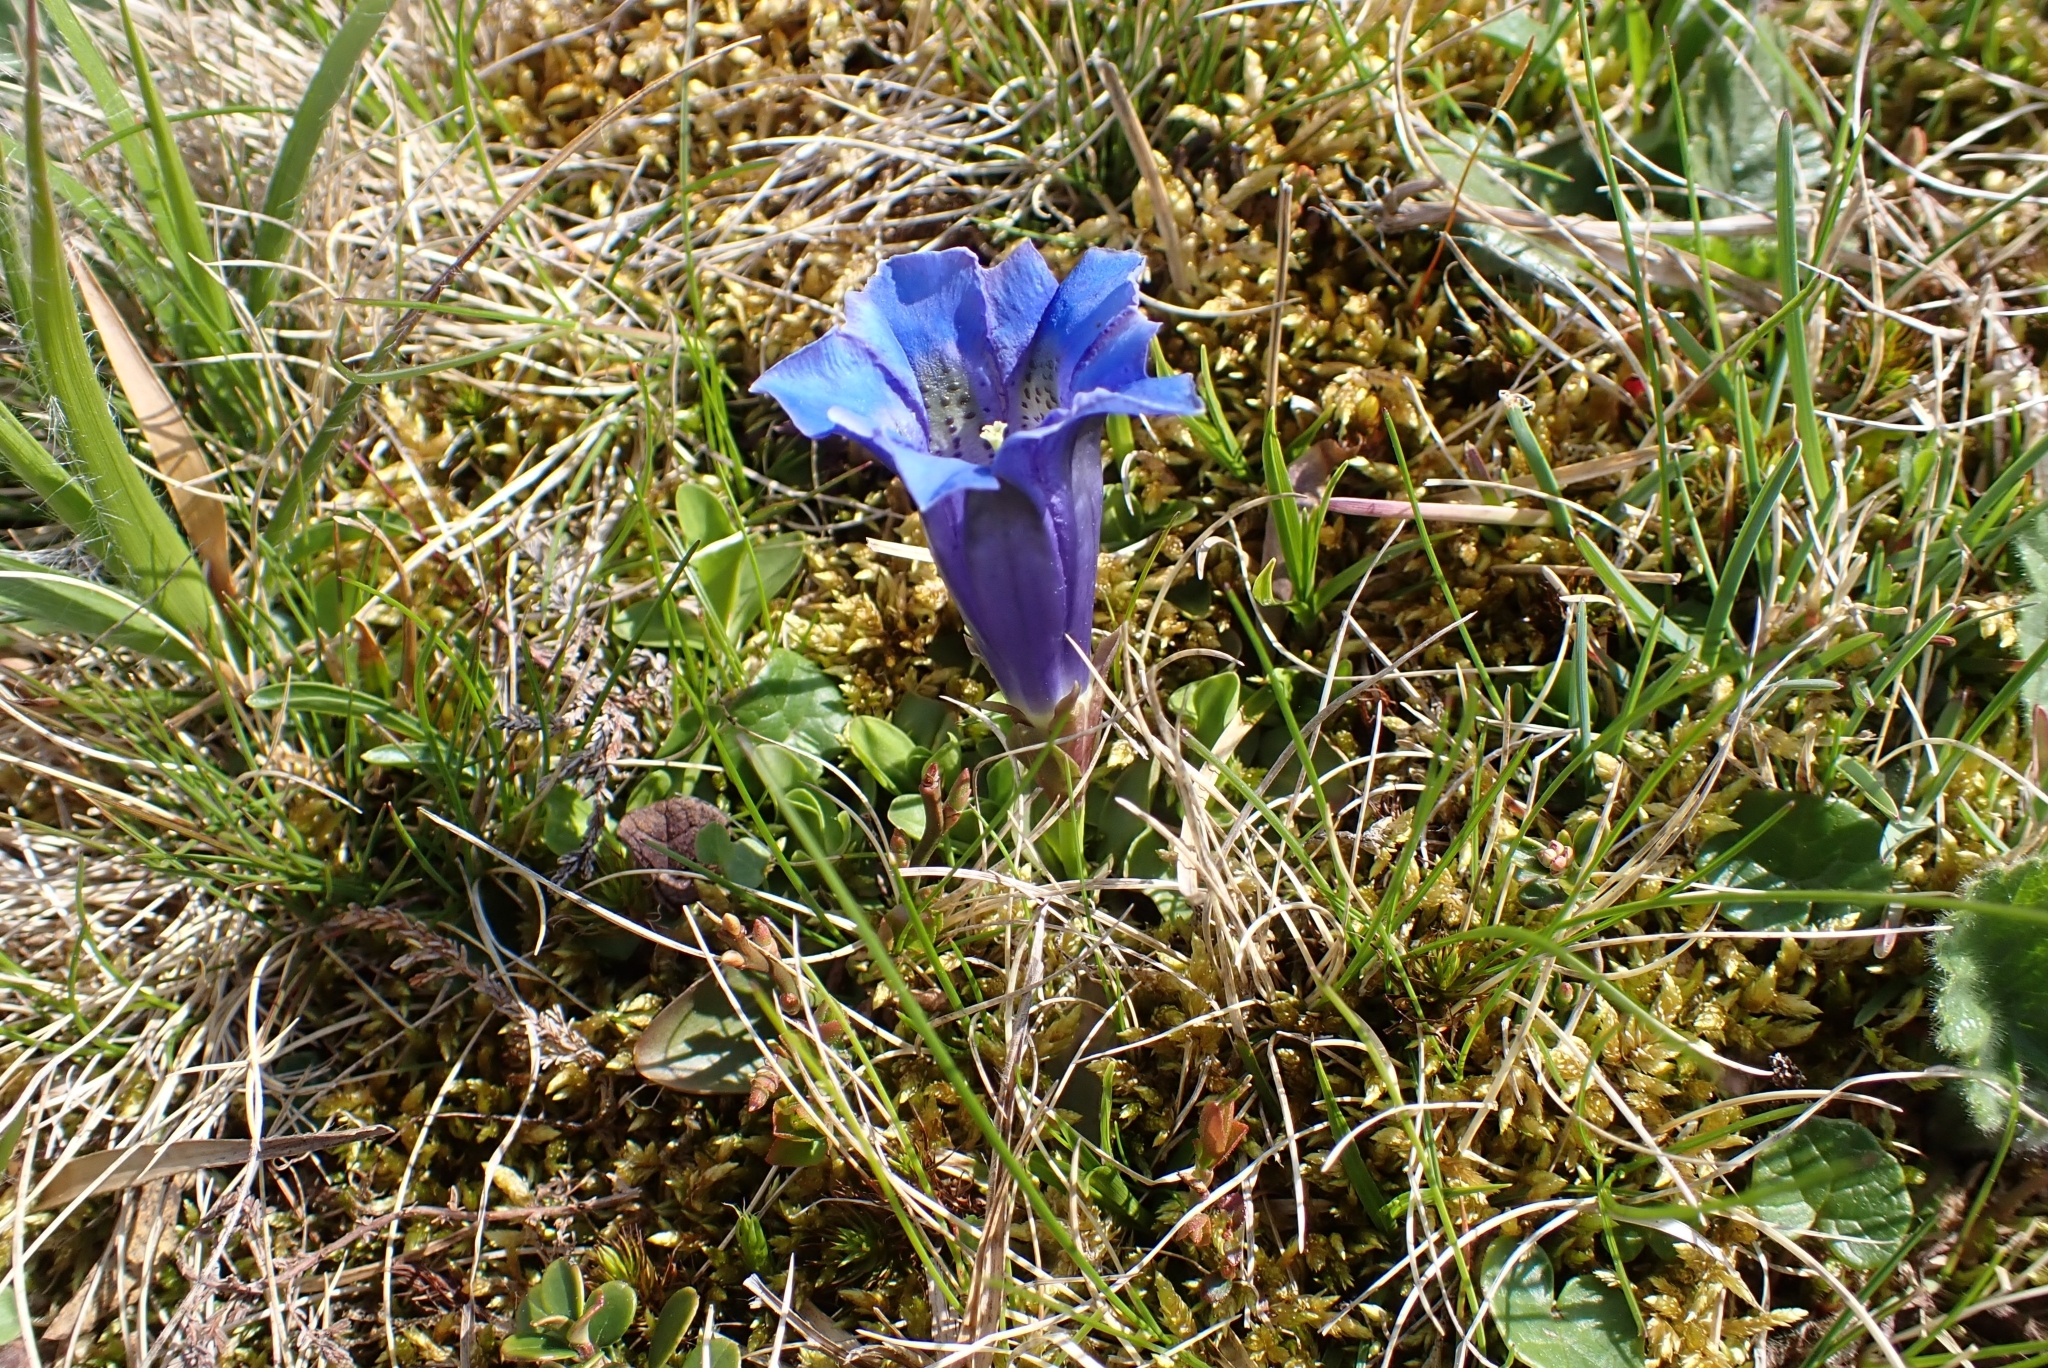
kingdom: Plantae
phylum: Tracheophyta
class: Magnoliopsida
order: Gentianales
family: Gentianaceae
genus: Gentiana
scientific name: Gentiana acaulis
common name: Trumpet gentian
